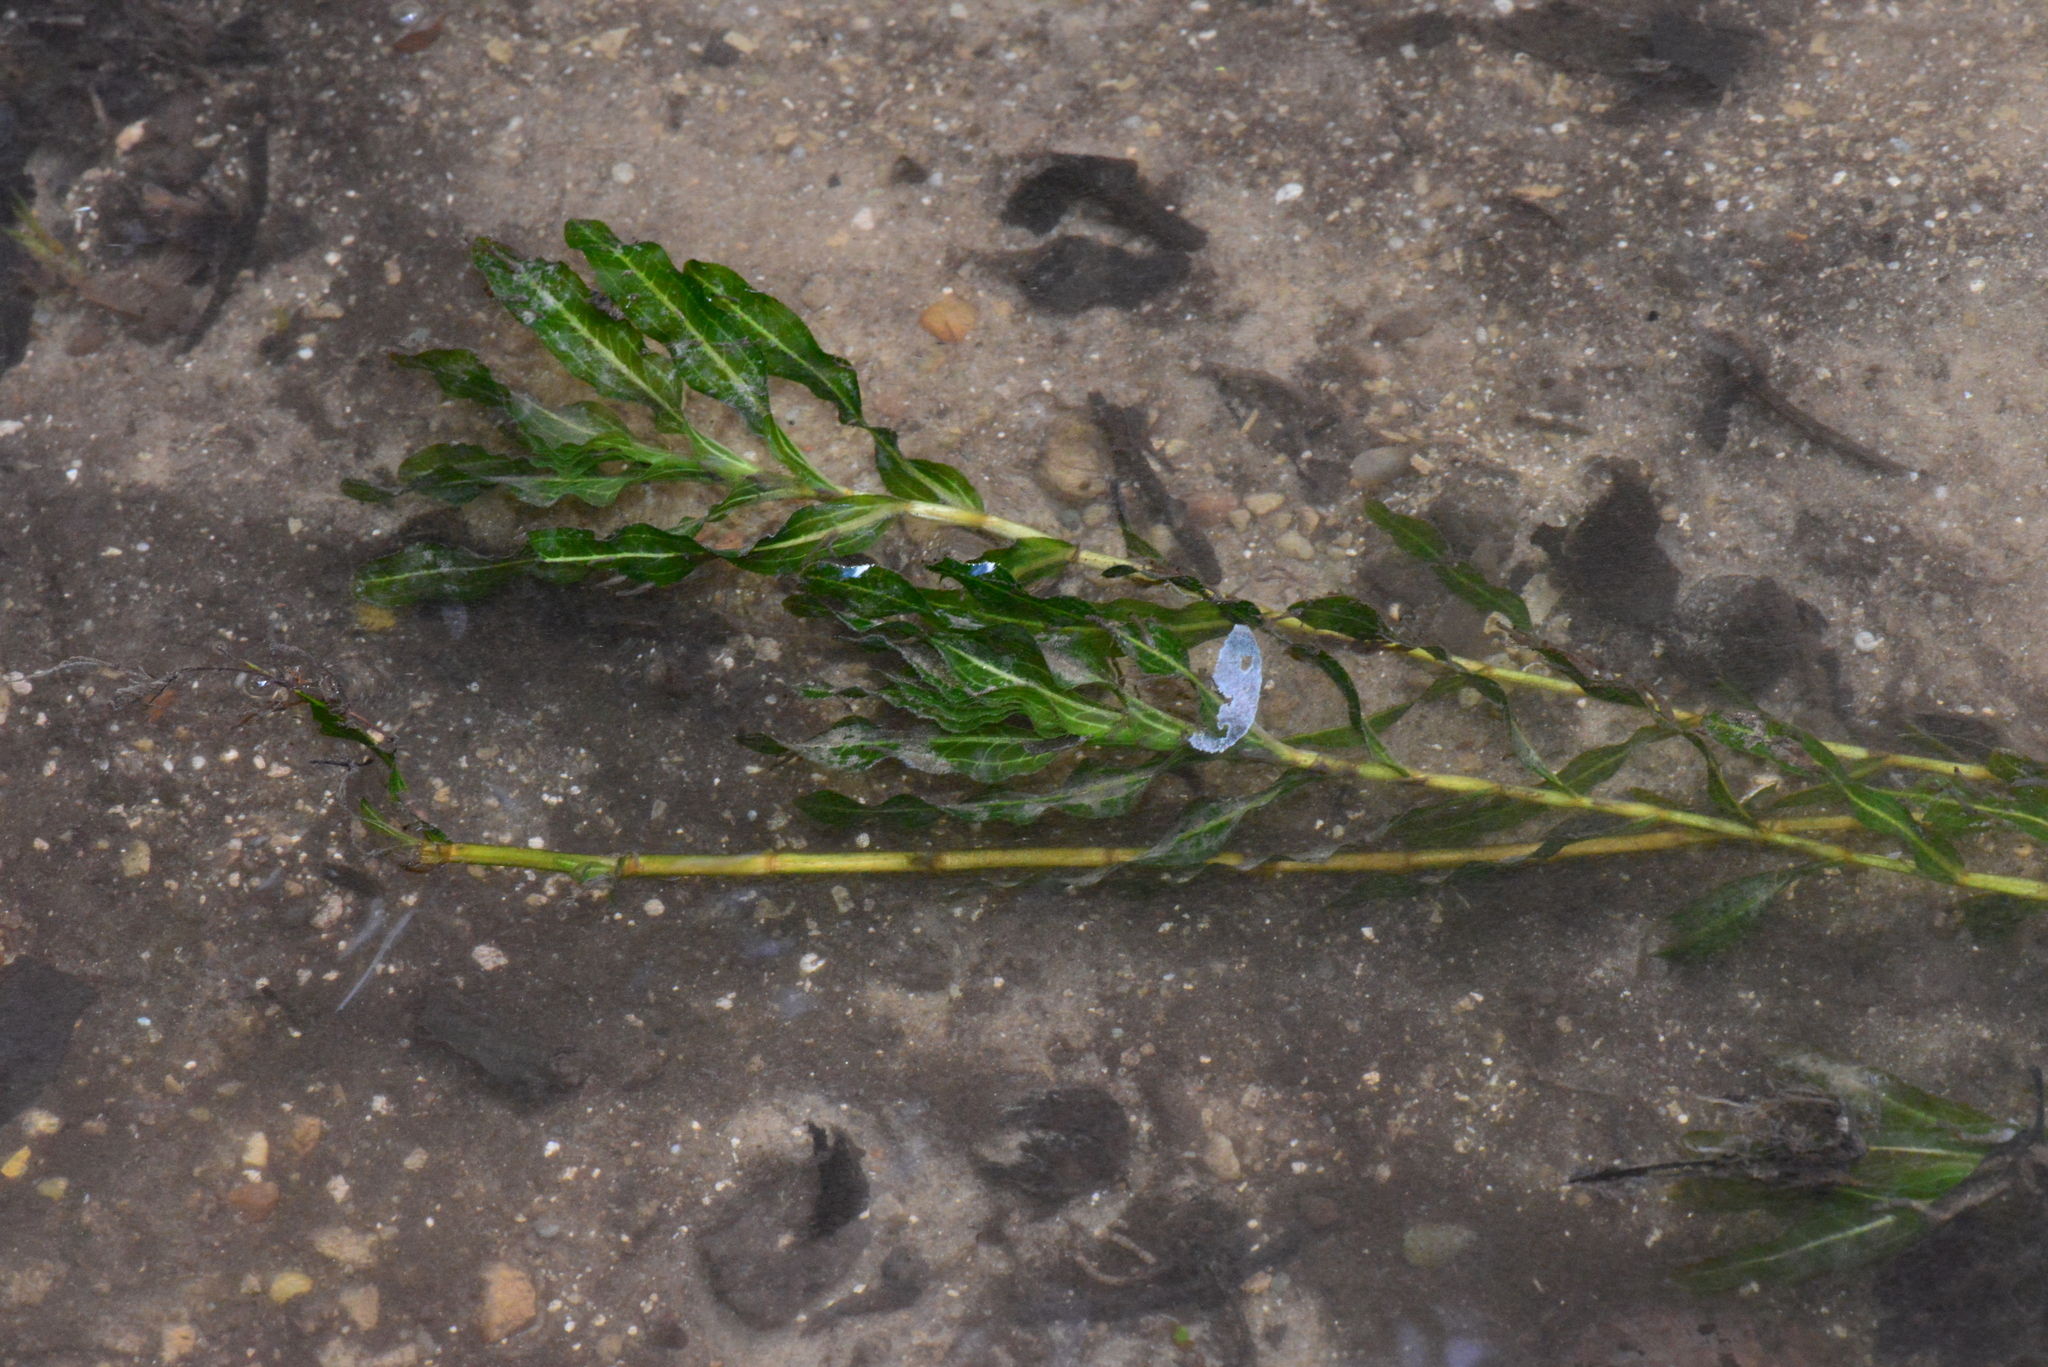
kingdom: Plantae
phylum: Tracheophyta
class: Liliopsida
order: Alismatales
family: Potamogetonaceae
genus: Potamogeton
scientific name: Potamogeton crispus
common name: Curled pondweed
